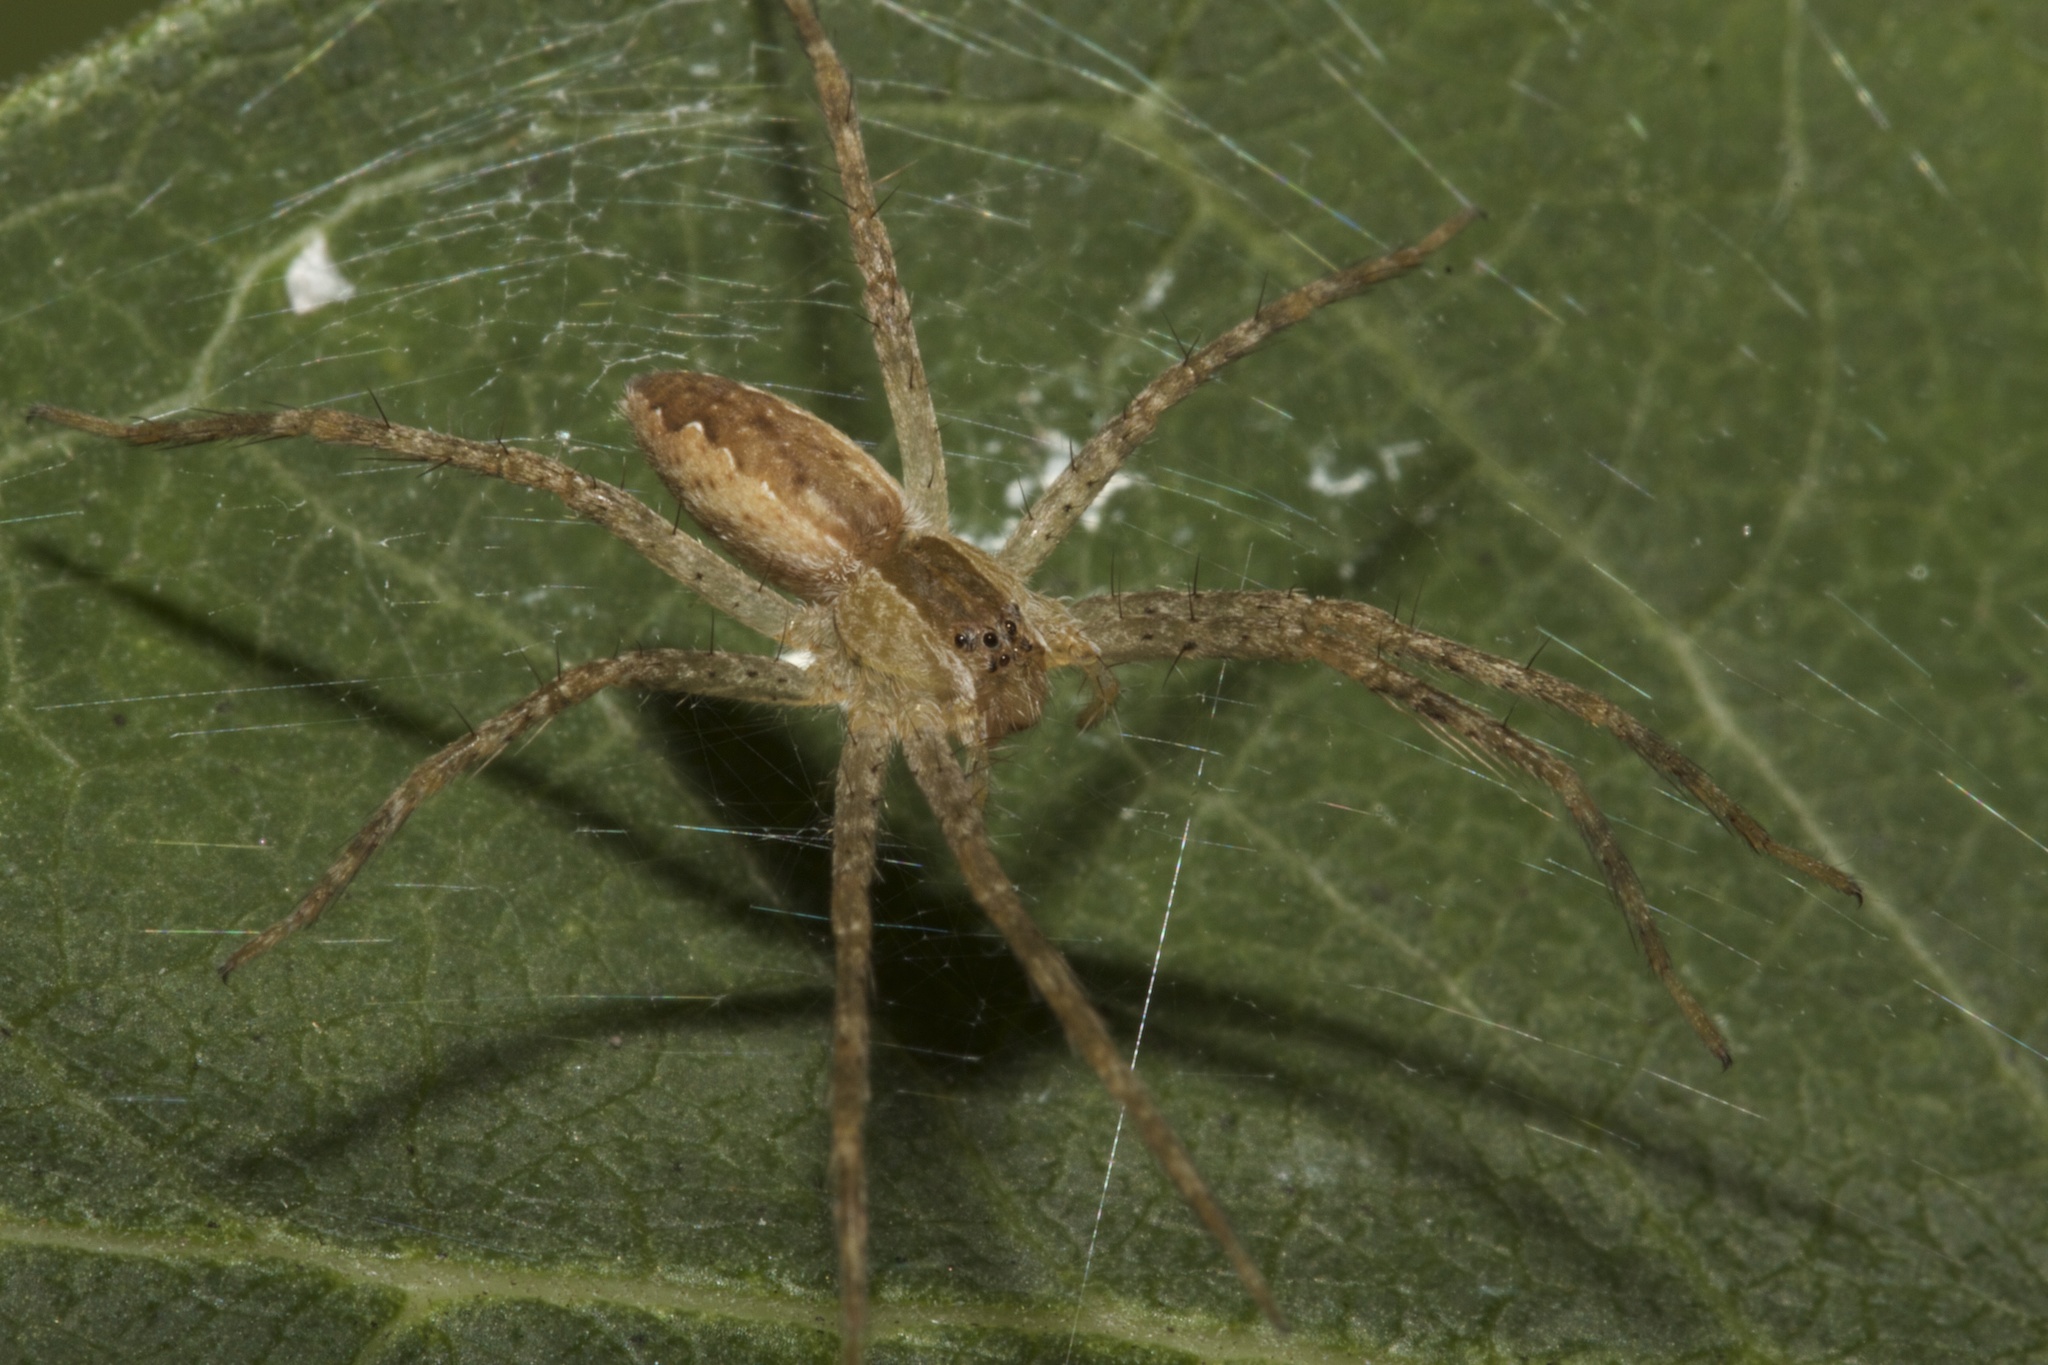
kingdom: Animalia
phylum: Arthropoda
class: Arachnida
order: Araneae
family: Pisauridae
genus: Pisaurina
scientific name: Pisaurina mira
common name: American nursery web spider
